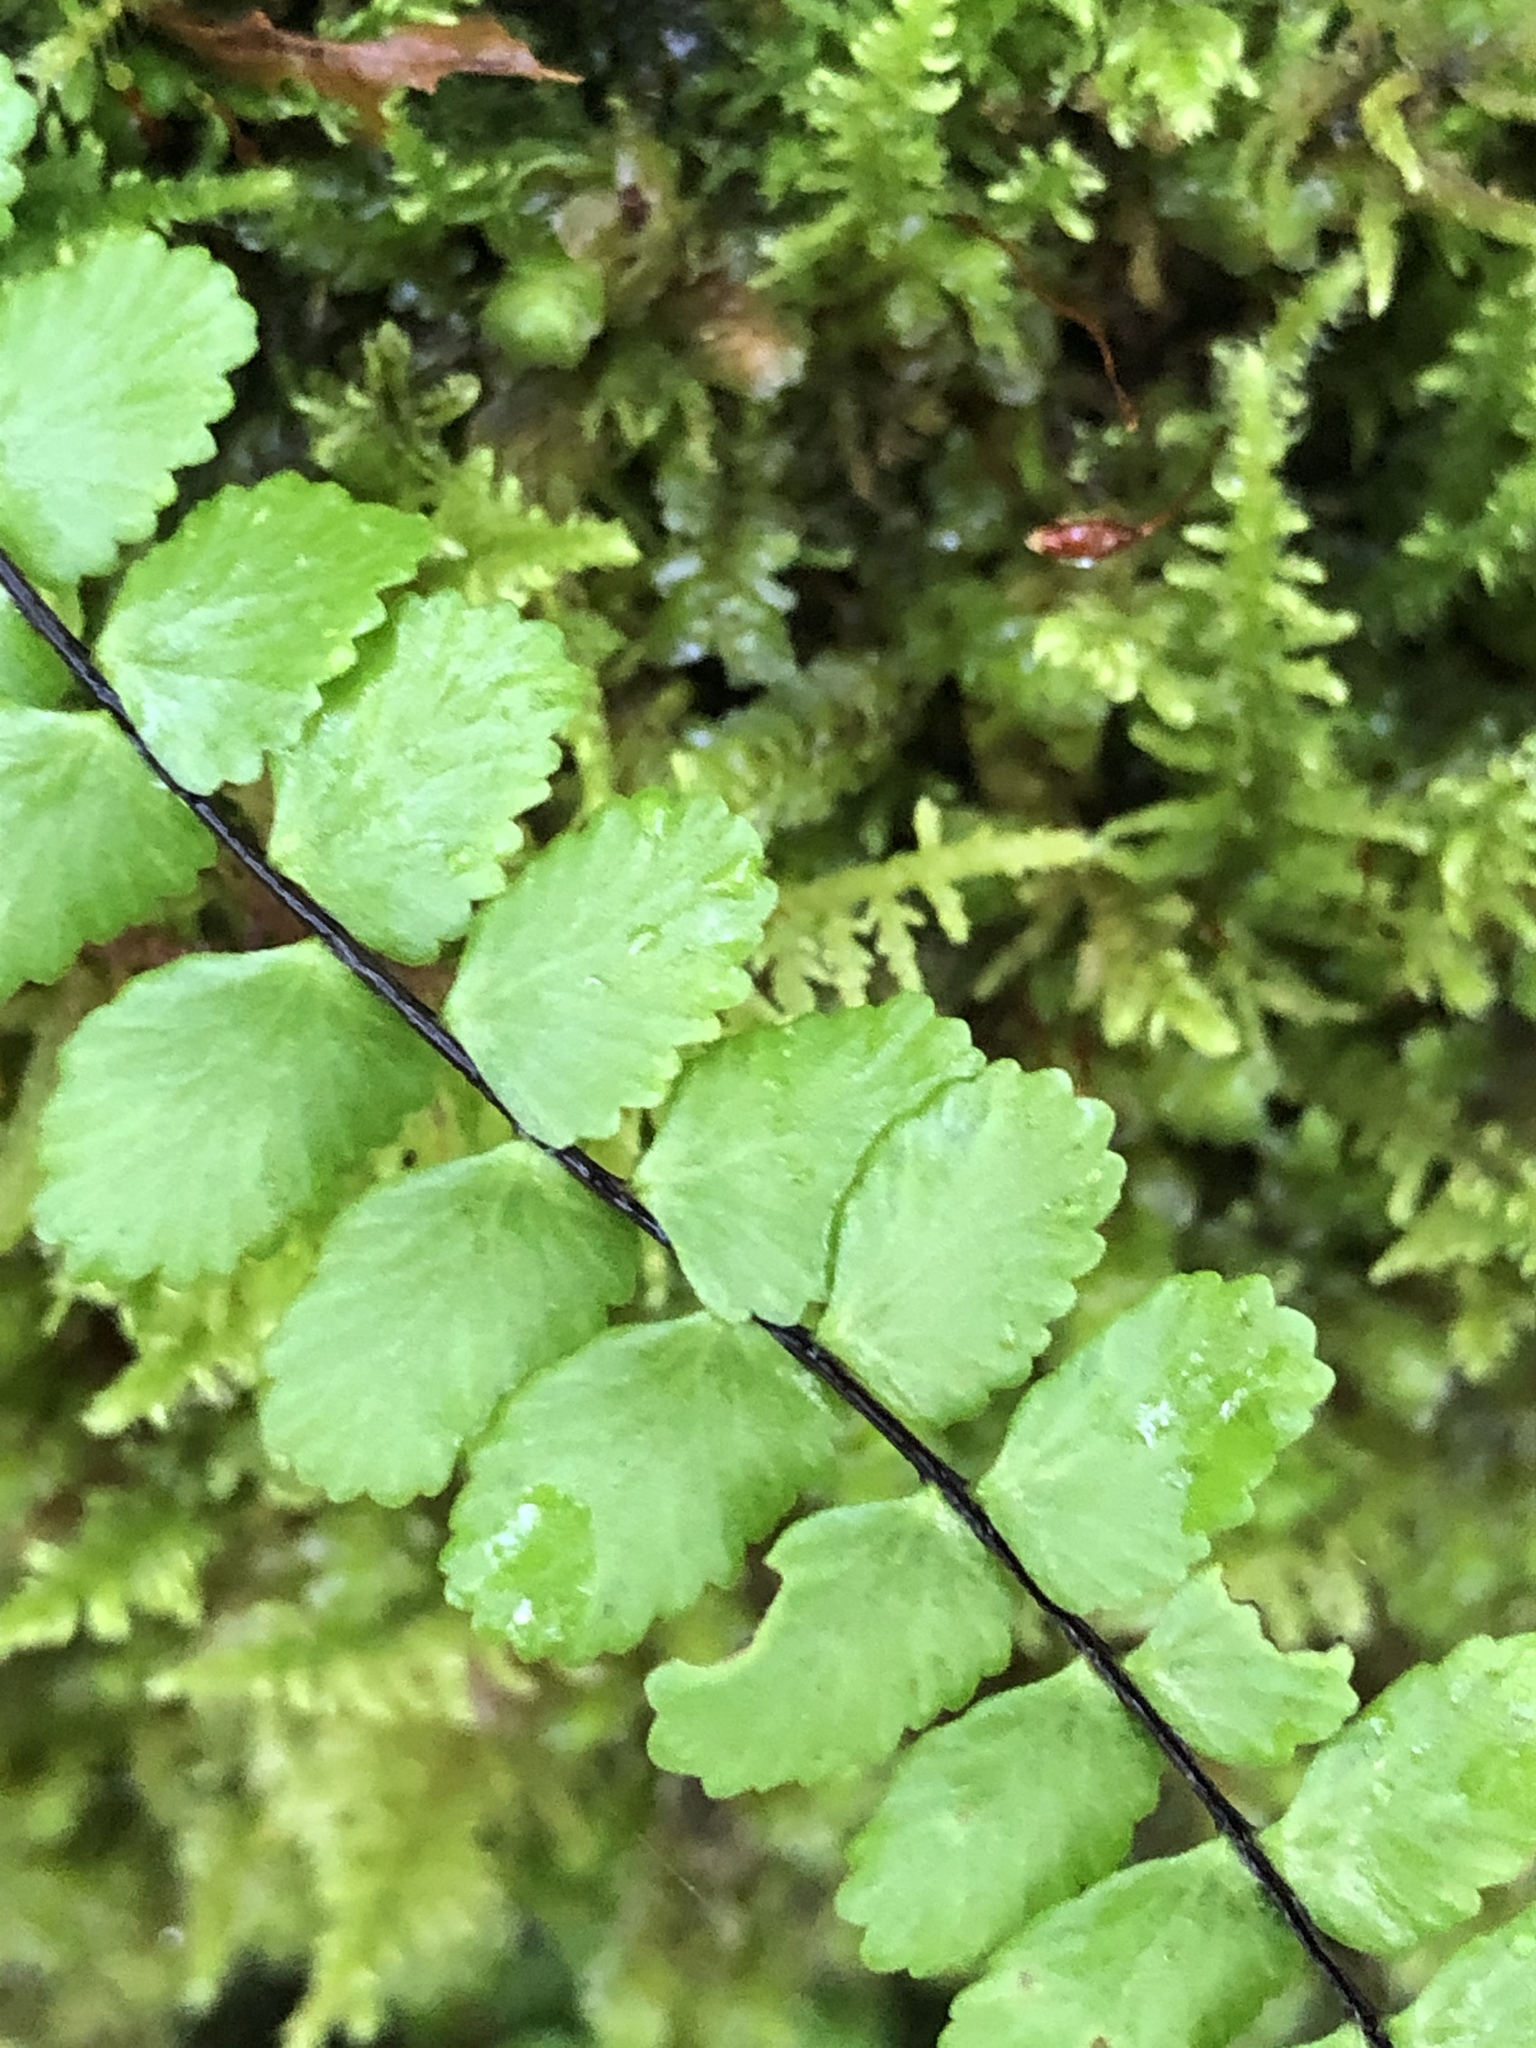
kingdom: Plantae
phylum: Tracheophyta
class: Polypodiopsida
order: Polypodiales
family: Aspleniaceae
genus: Asplenium
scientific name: Asplenium trichomanes
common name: Maidenhair spleenwort
